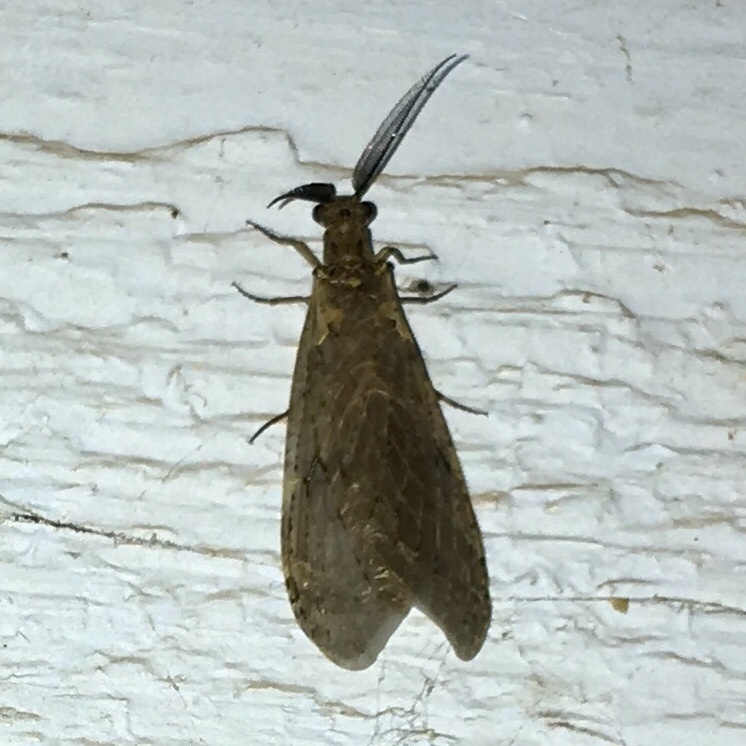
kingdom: Animalia
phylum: Arthropoda
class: Insecta
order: Megaloptera
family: Corydalidae
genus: Chauliodes
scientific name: Chauliodes rastricornis
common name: Spring fishfly
